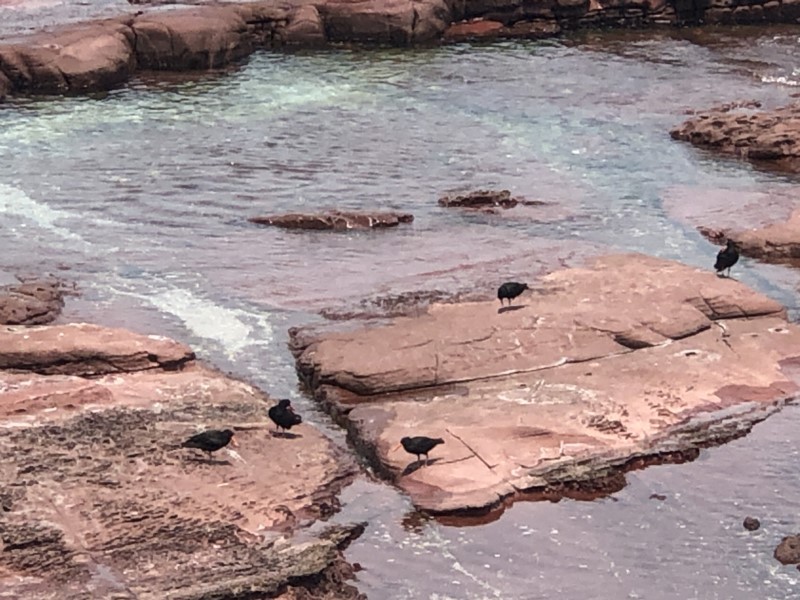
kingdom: Animalia
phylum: Chordata
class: Aves
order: Charadriiformes
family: Haematopodidae
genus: Haematopus
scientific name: Haematopus fuliginosus
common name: Sooty oystercatcher
